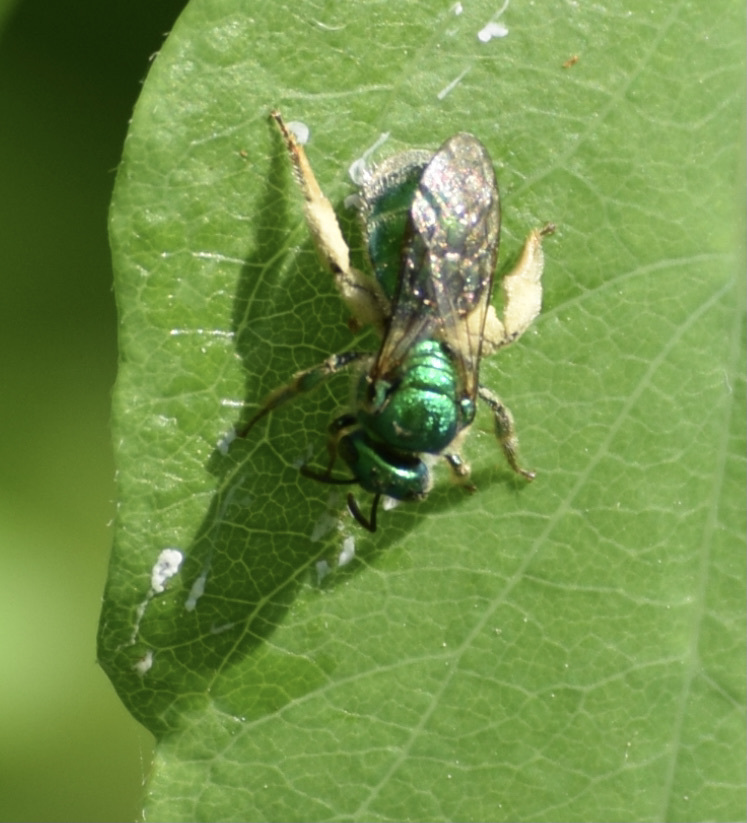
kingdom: Animalia
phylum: Arthropoda
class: Insecta
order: Hymenoptera
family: Halictidae
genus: Augochloropsis
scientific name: Augochloropsis viridula
